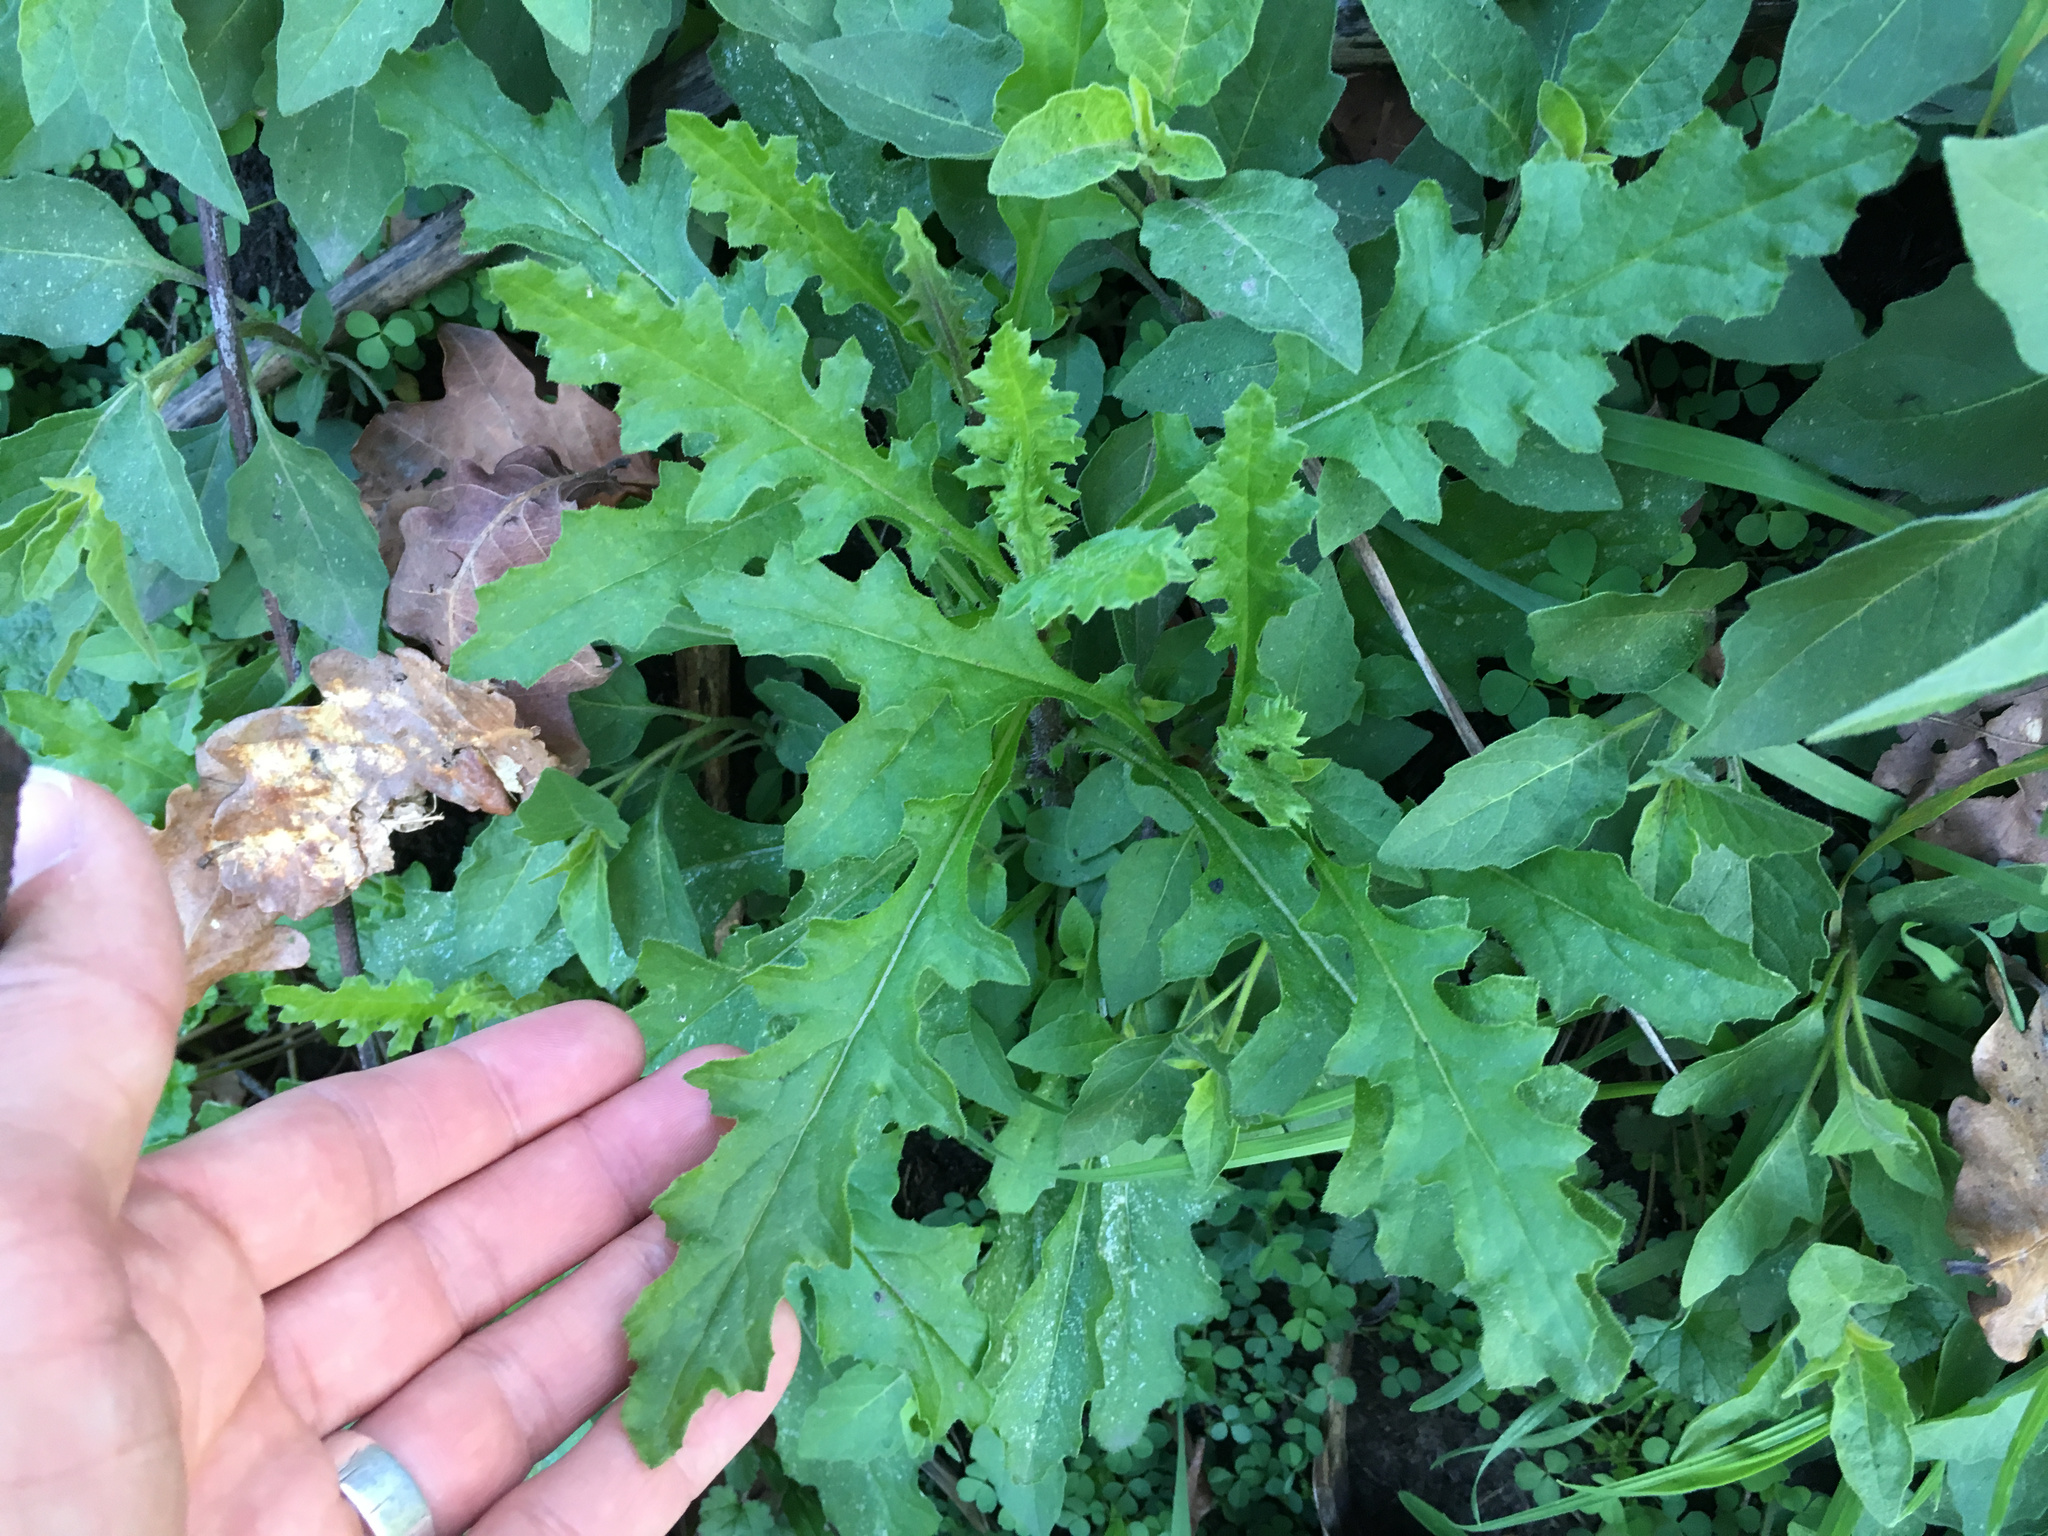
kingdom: Plantae
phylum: Tracheophyta
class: Magnoliopsida
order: Asterales
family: Asteraceae
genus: Senecio
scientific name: Senecio glomeratus
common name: Cutleaf burnweed
